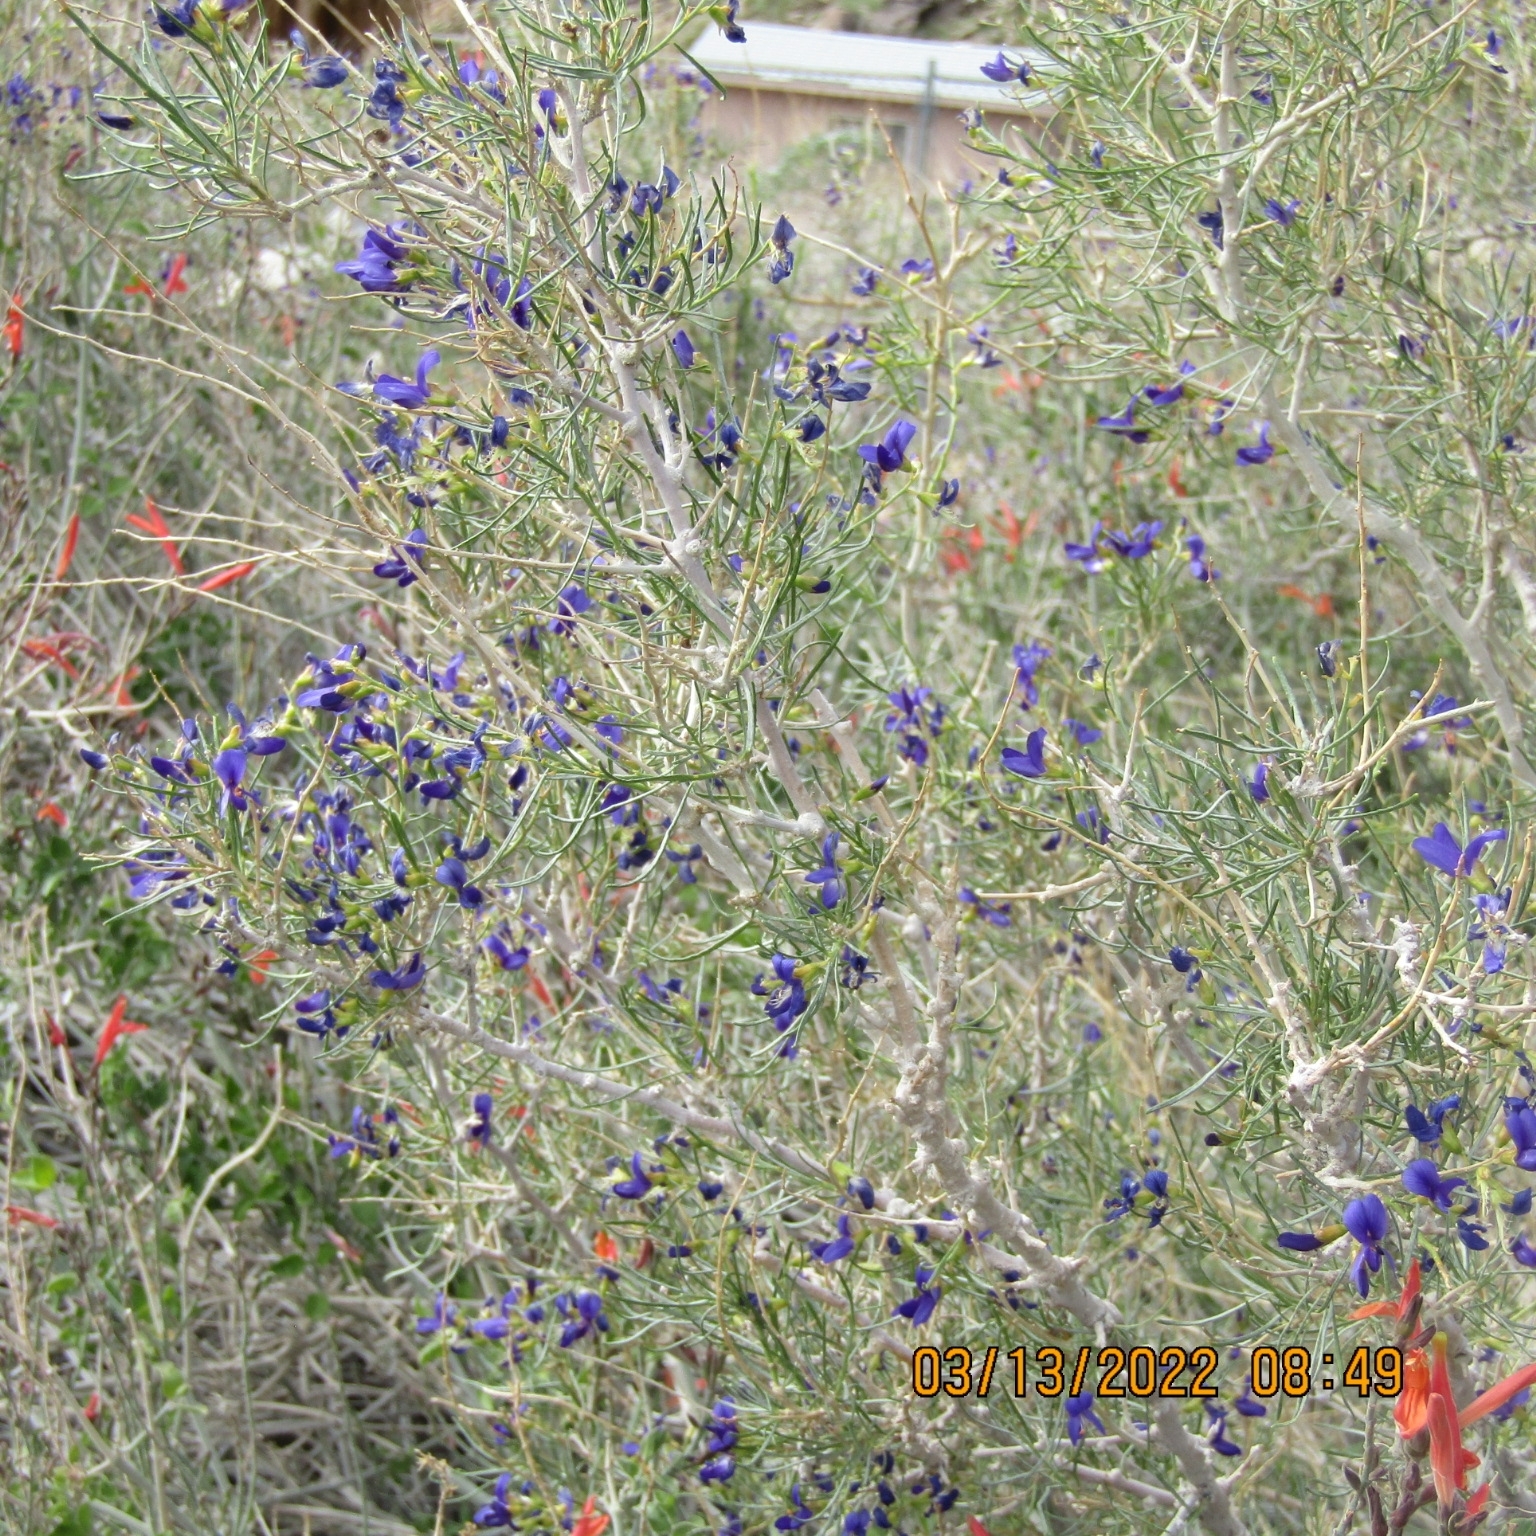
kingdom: Plantae
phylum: Tracheophyta
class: Magnoliopsida
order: Fabales
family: Fabaceae
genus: Psorothamnus
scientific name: Psorothamnus schottii
